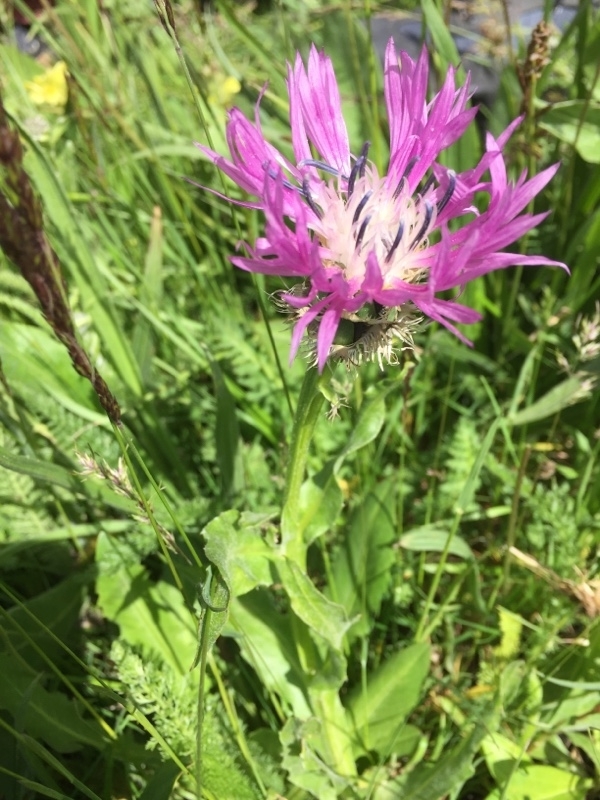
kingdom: Plantae
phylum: Tracheophyta
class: Magnoliopsida
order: Asterales
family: Asteraceae
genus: Centaurea
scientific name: Centaurea cheiranthifolia
